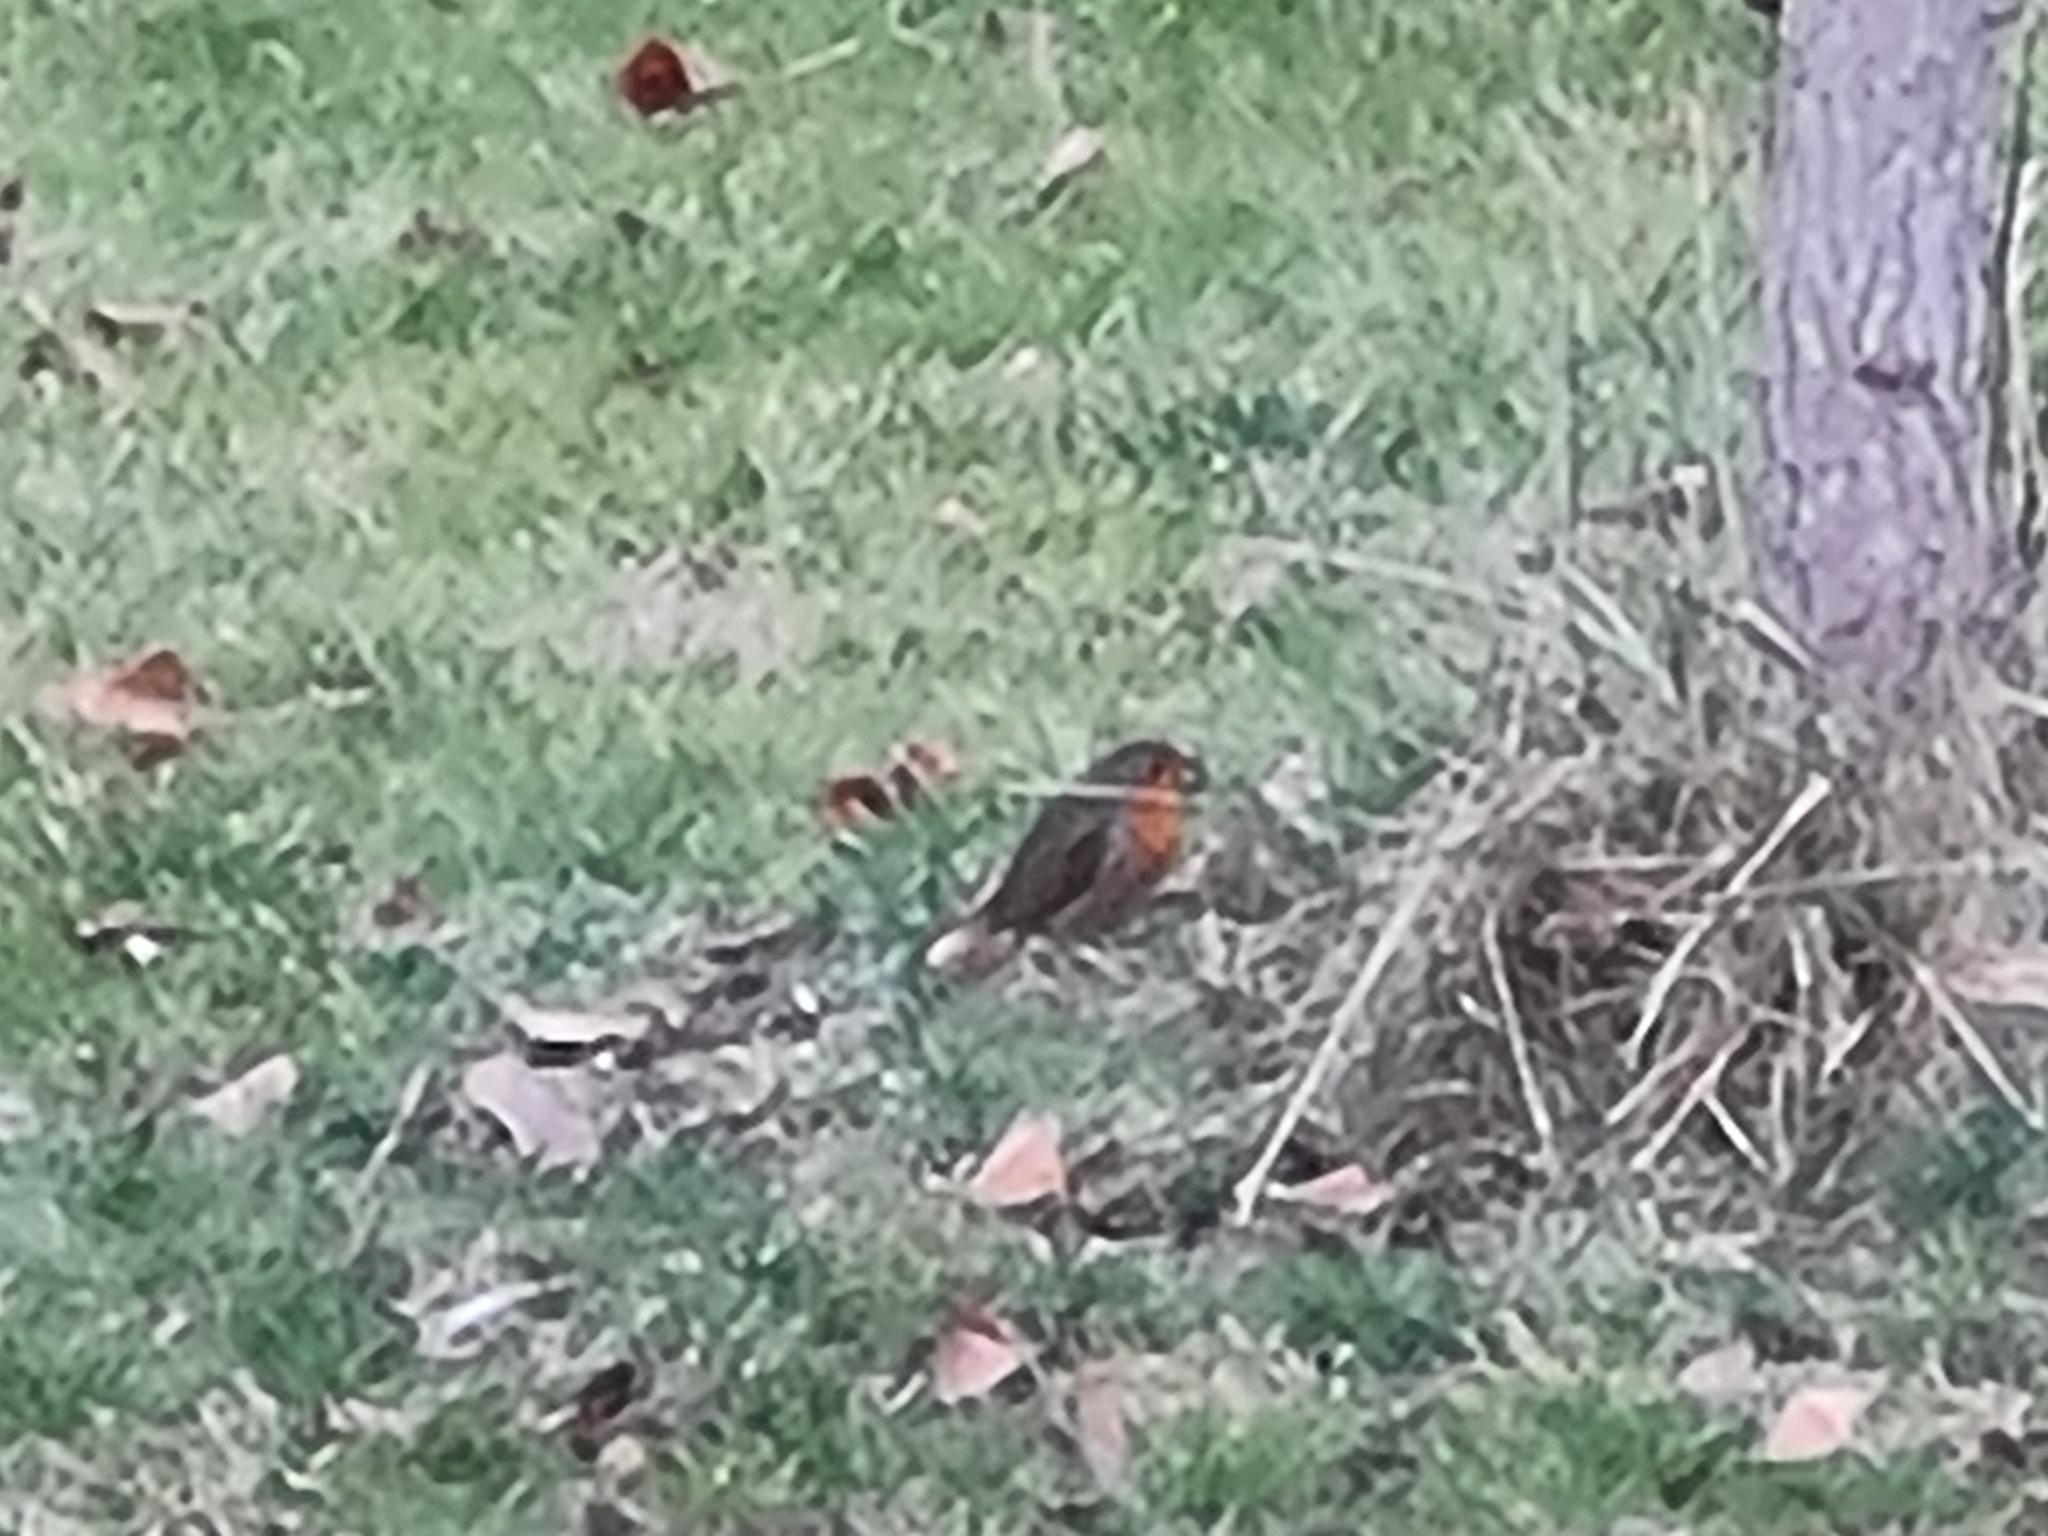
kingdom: Animalia
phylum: Chordata
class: Aves
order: Passeriformes
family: Muscicapidae
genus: Erithacus
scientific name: Erithacus rubecula
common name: European robin
